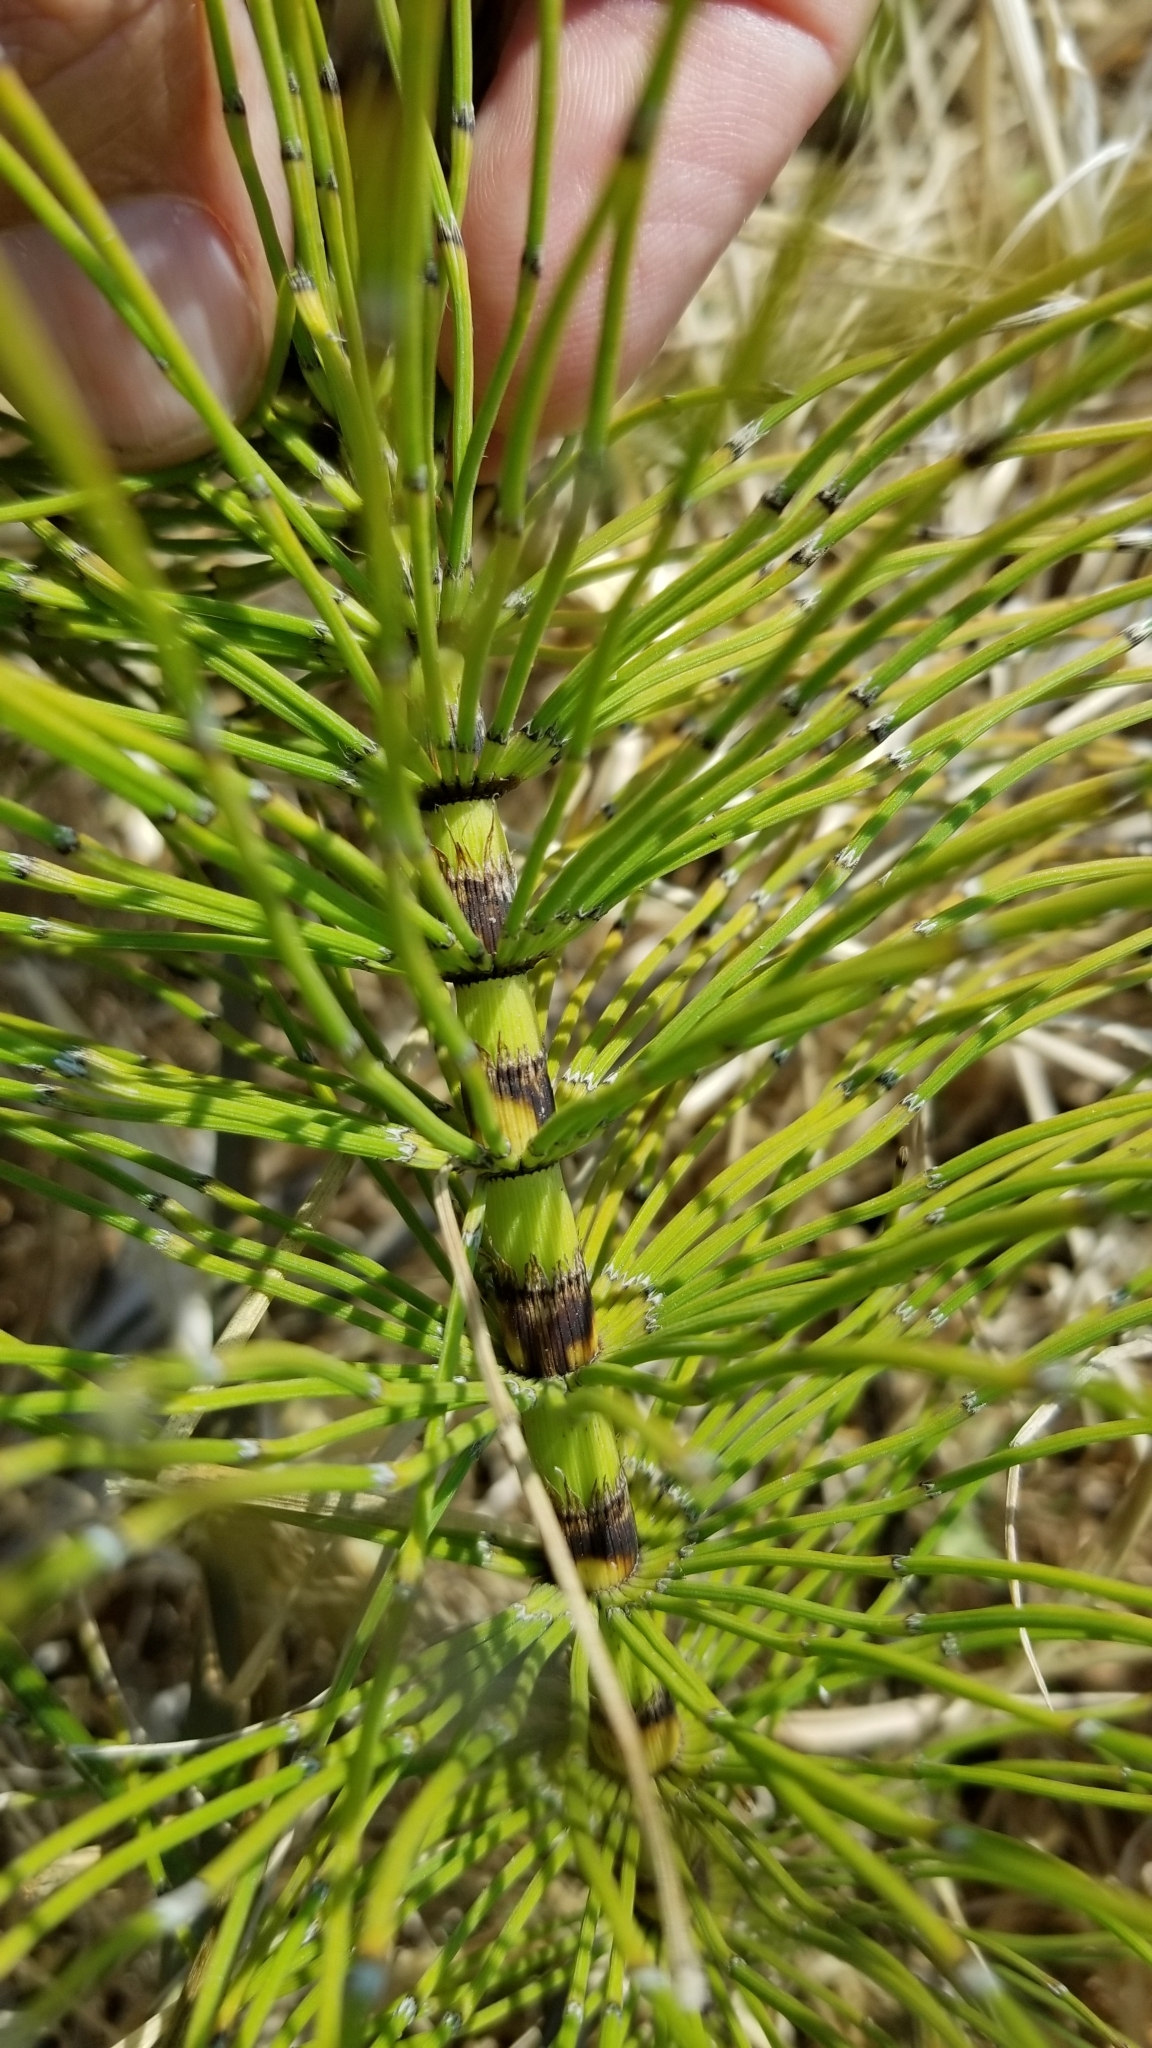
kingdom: Plantae
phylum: Tracheophyta
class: Polypodiopsida
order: Equisetales
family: Equisetaceae
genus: Equisetum
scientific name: Equisetum telmateia
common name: Great horsetail
